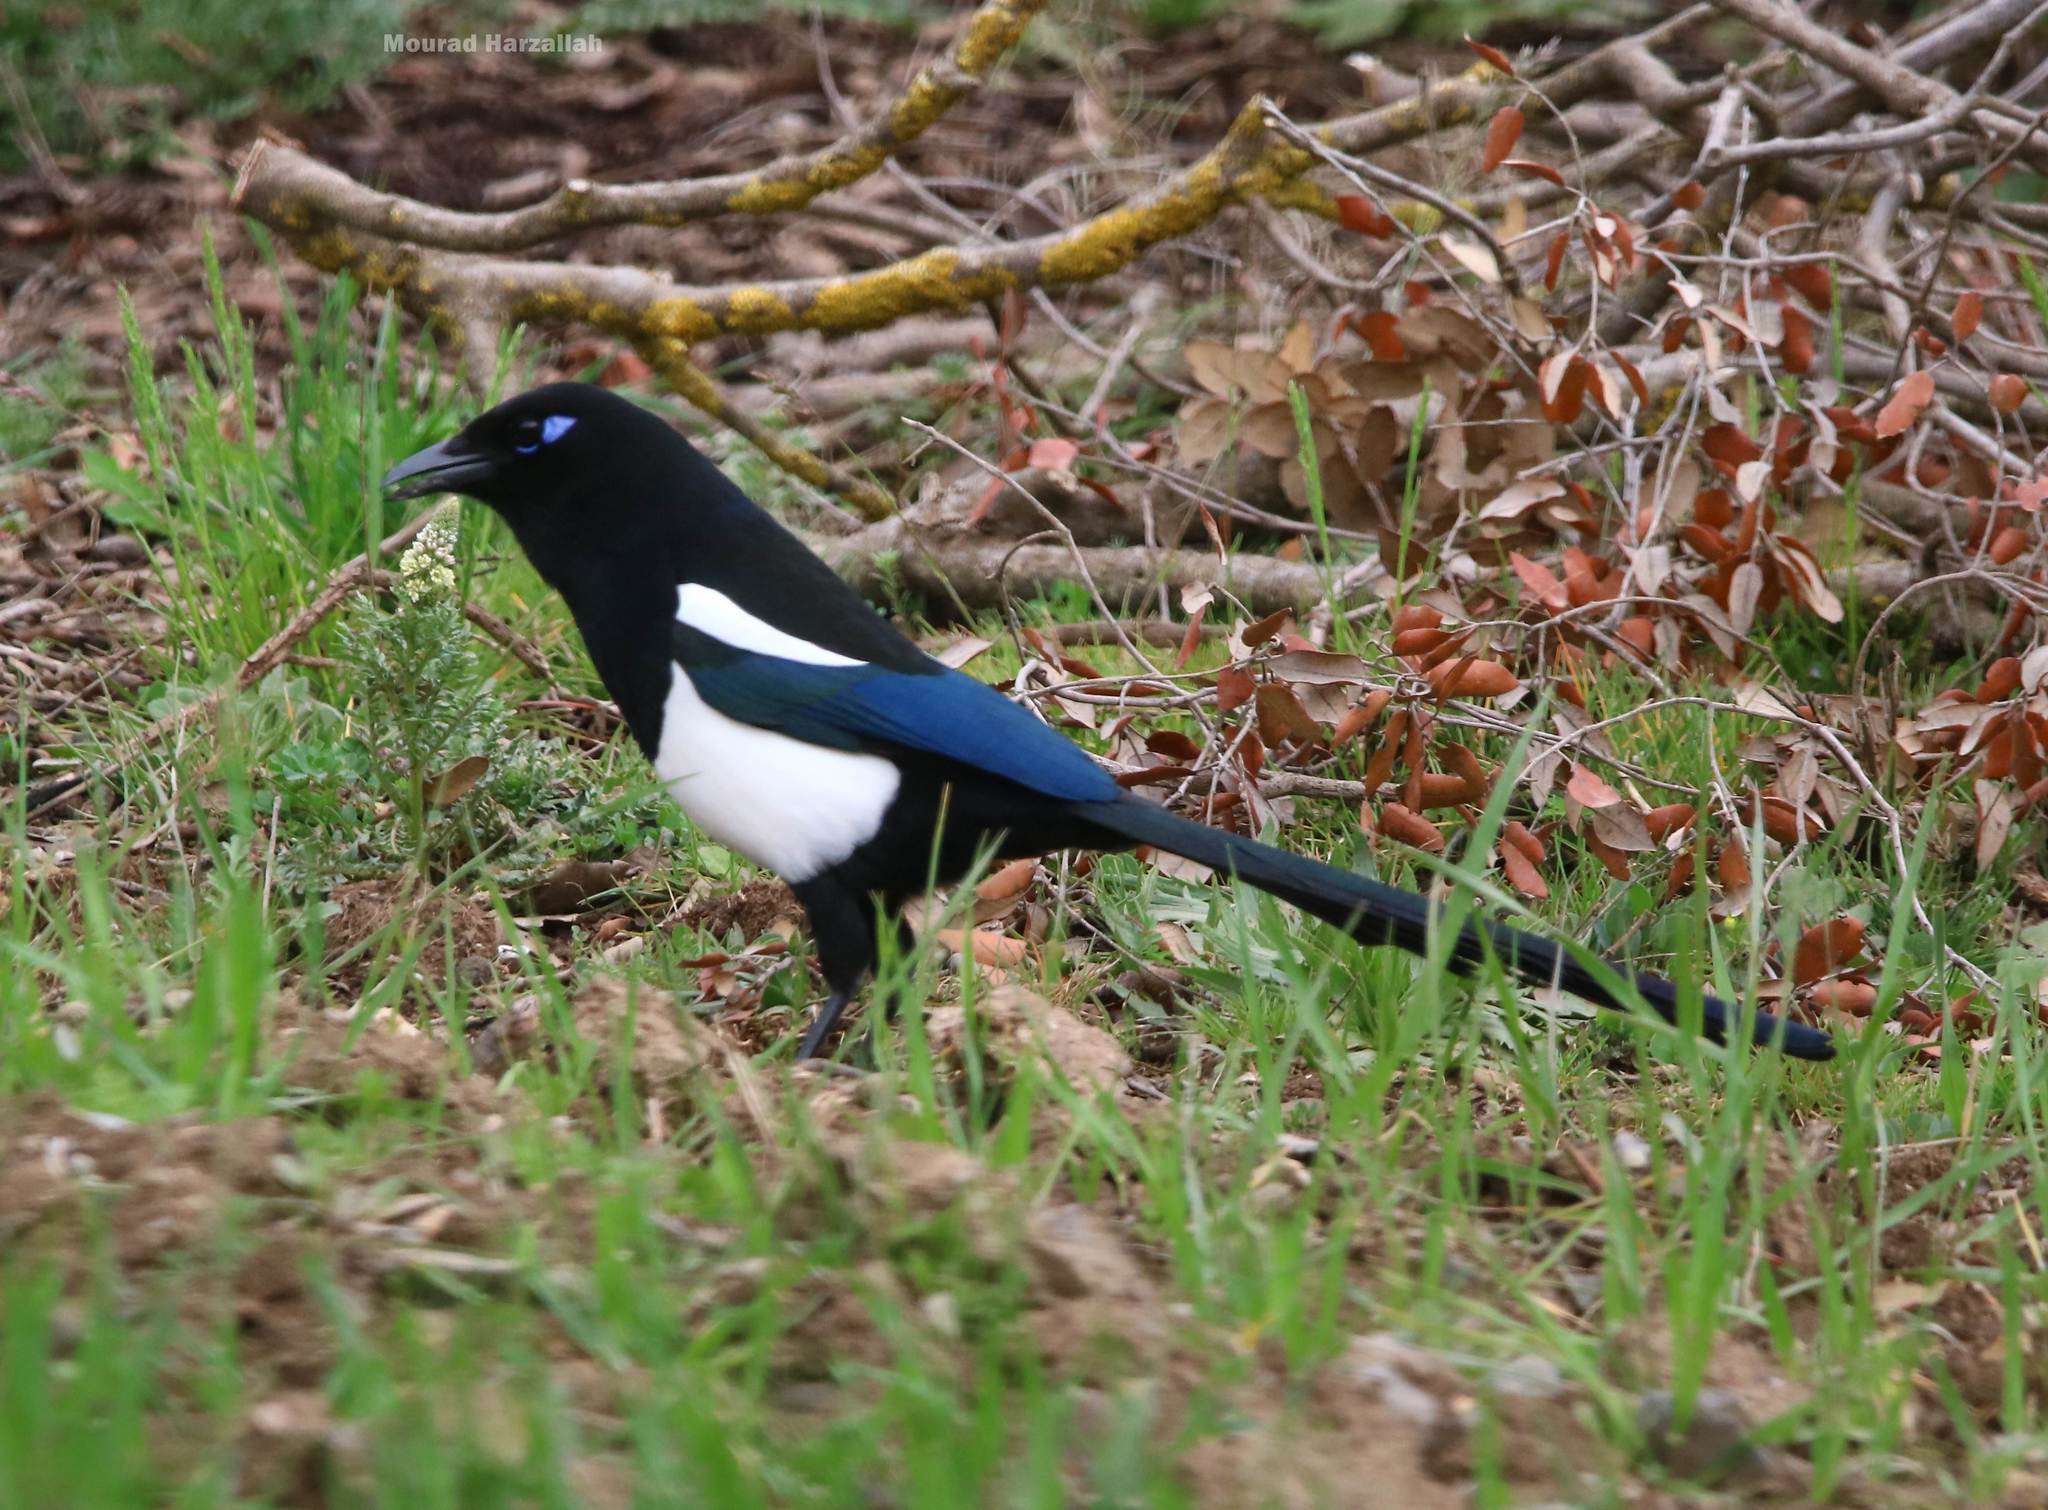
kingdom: Animalia
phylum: Chordata
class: Aves
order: Passeriformes
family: Corvidae
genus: Pica
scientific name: Pica mauritanica
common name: Maghreb magpie
